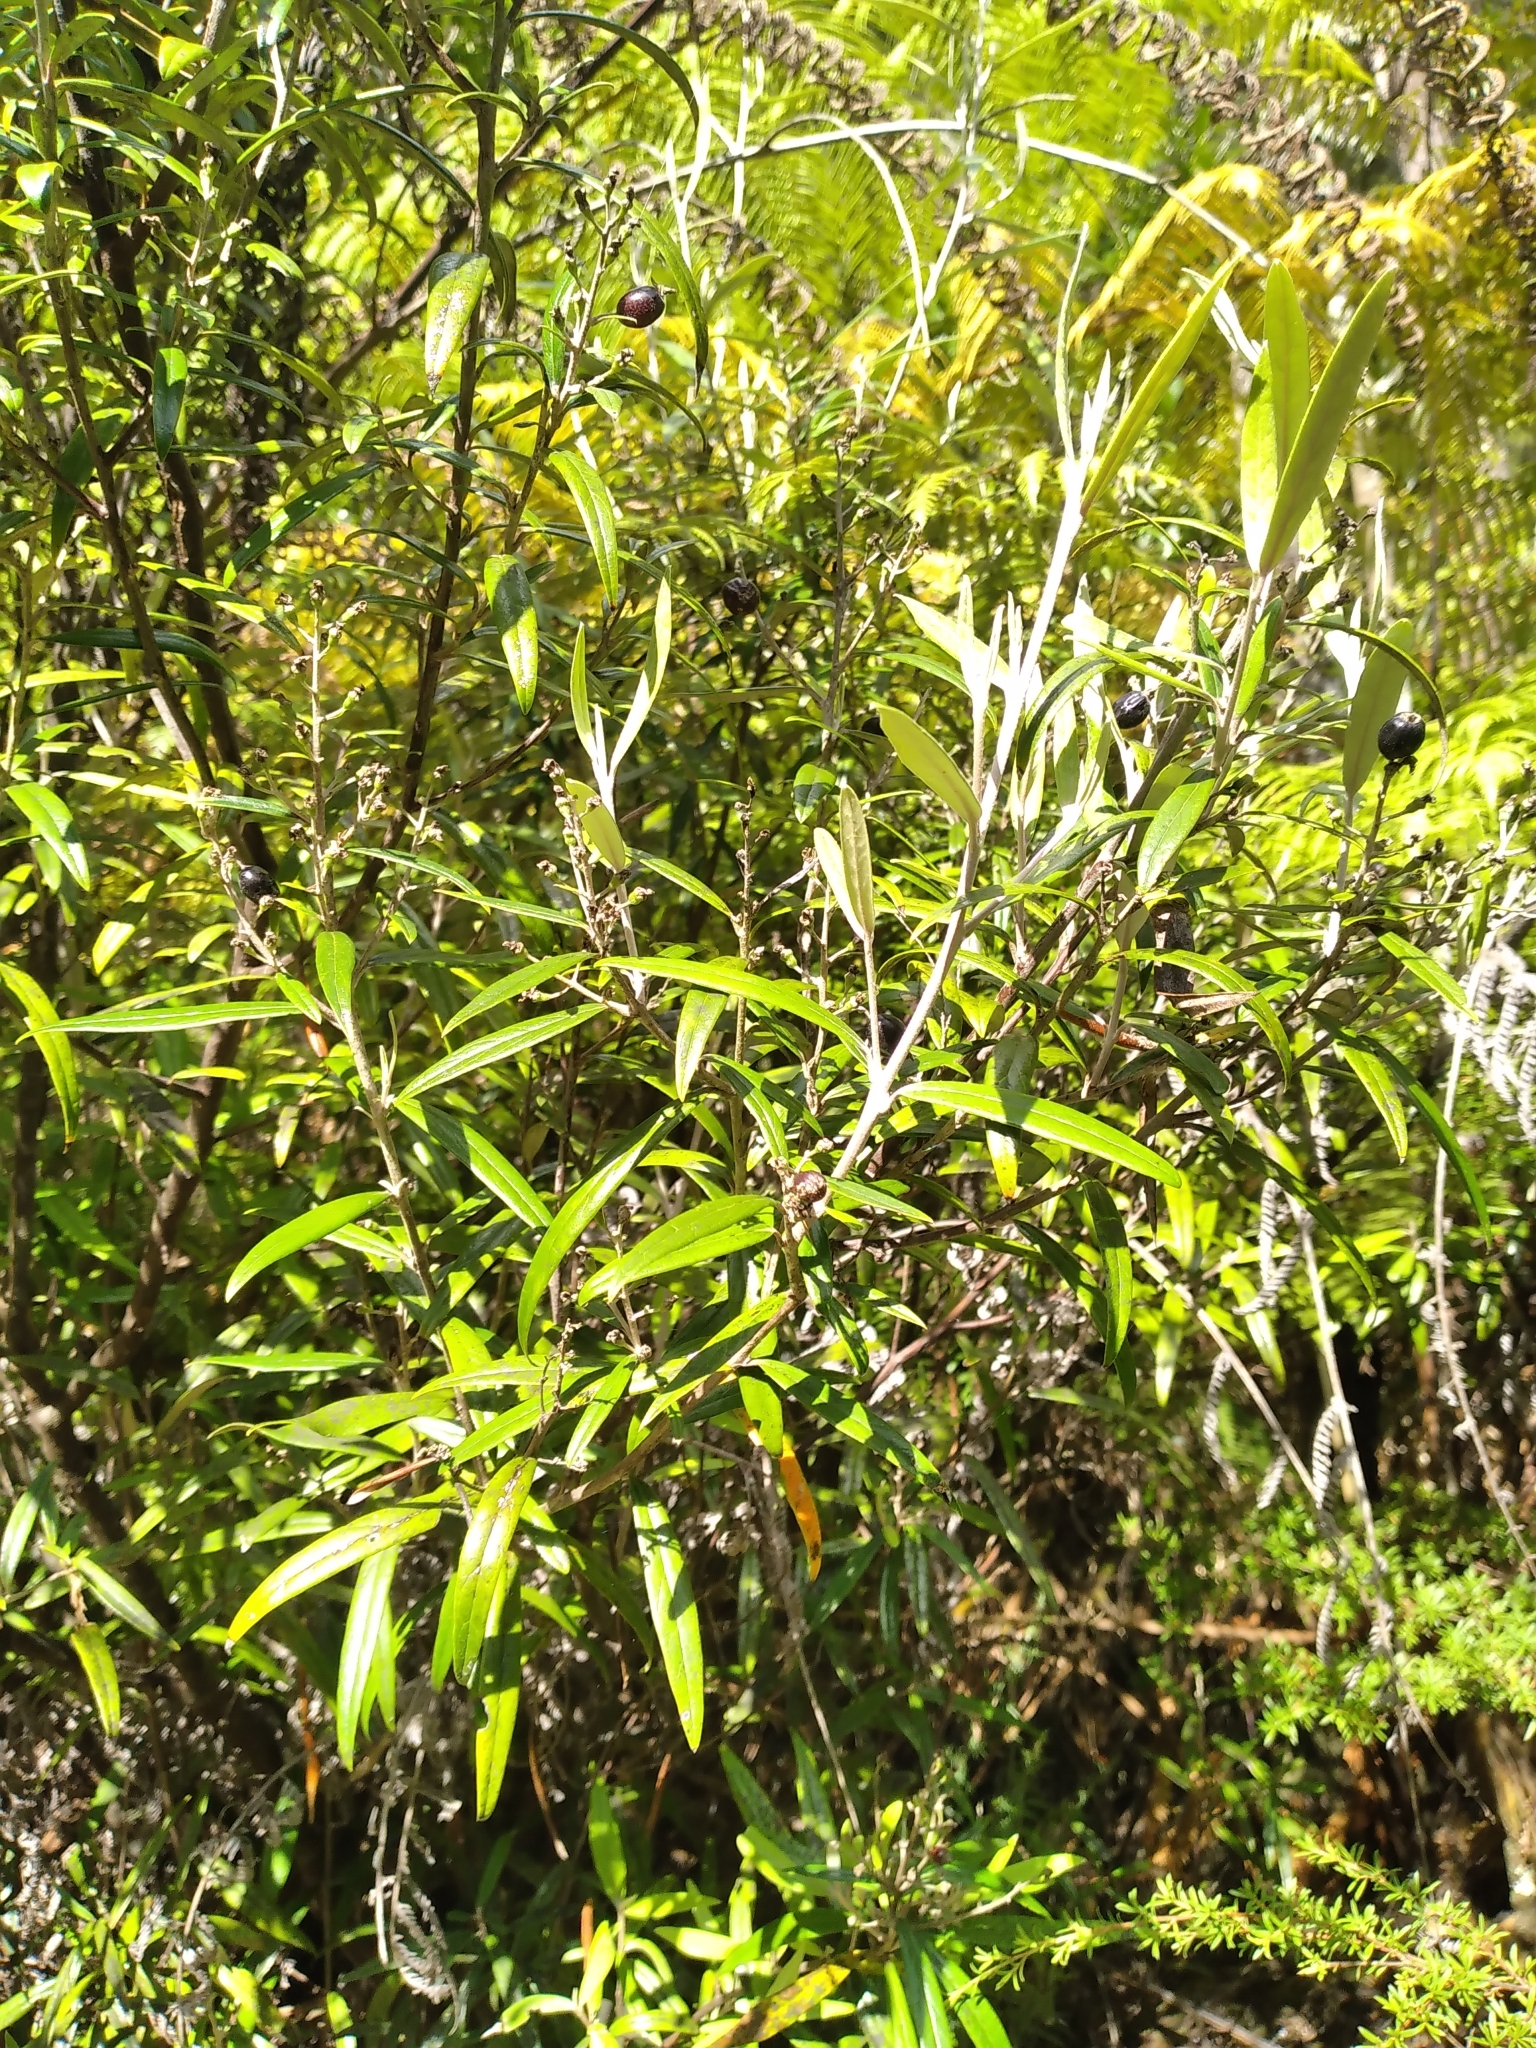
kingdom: Plantae
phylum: Tracheophyta
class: Magnoliopsida
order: Asterales
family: Argophyllaceae
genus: Corokia
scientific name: Corokia buddleioides
